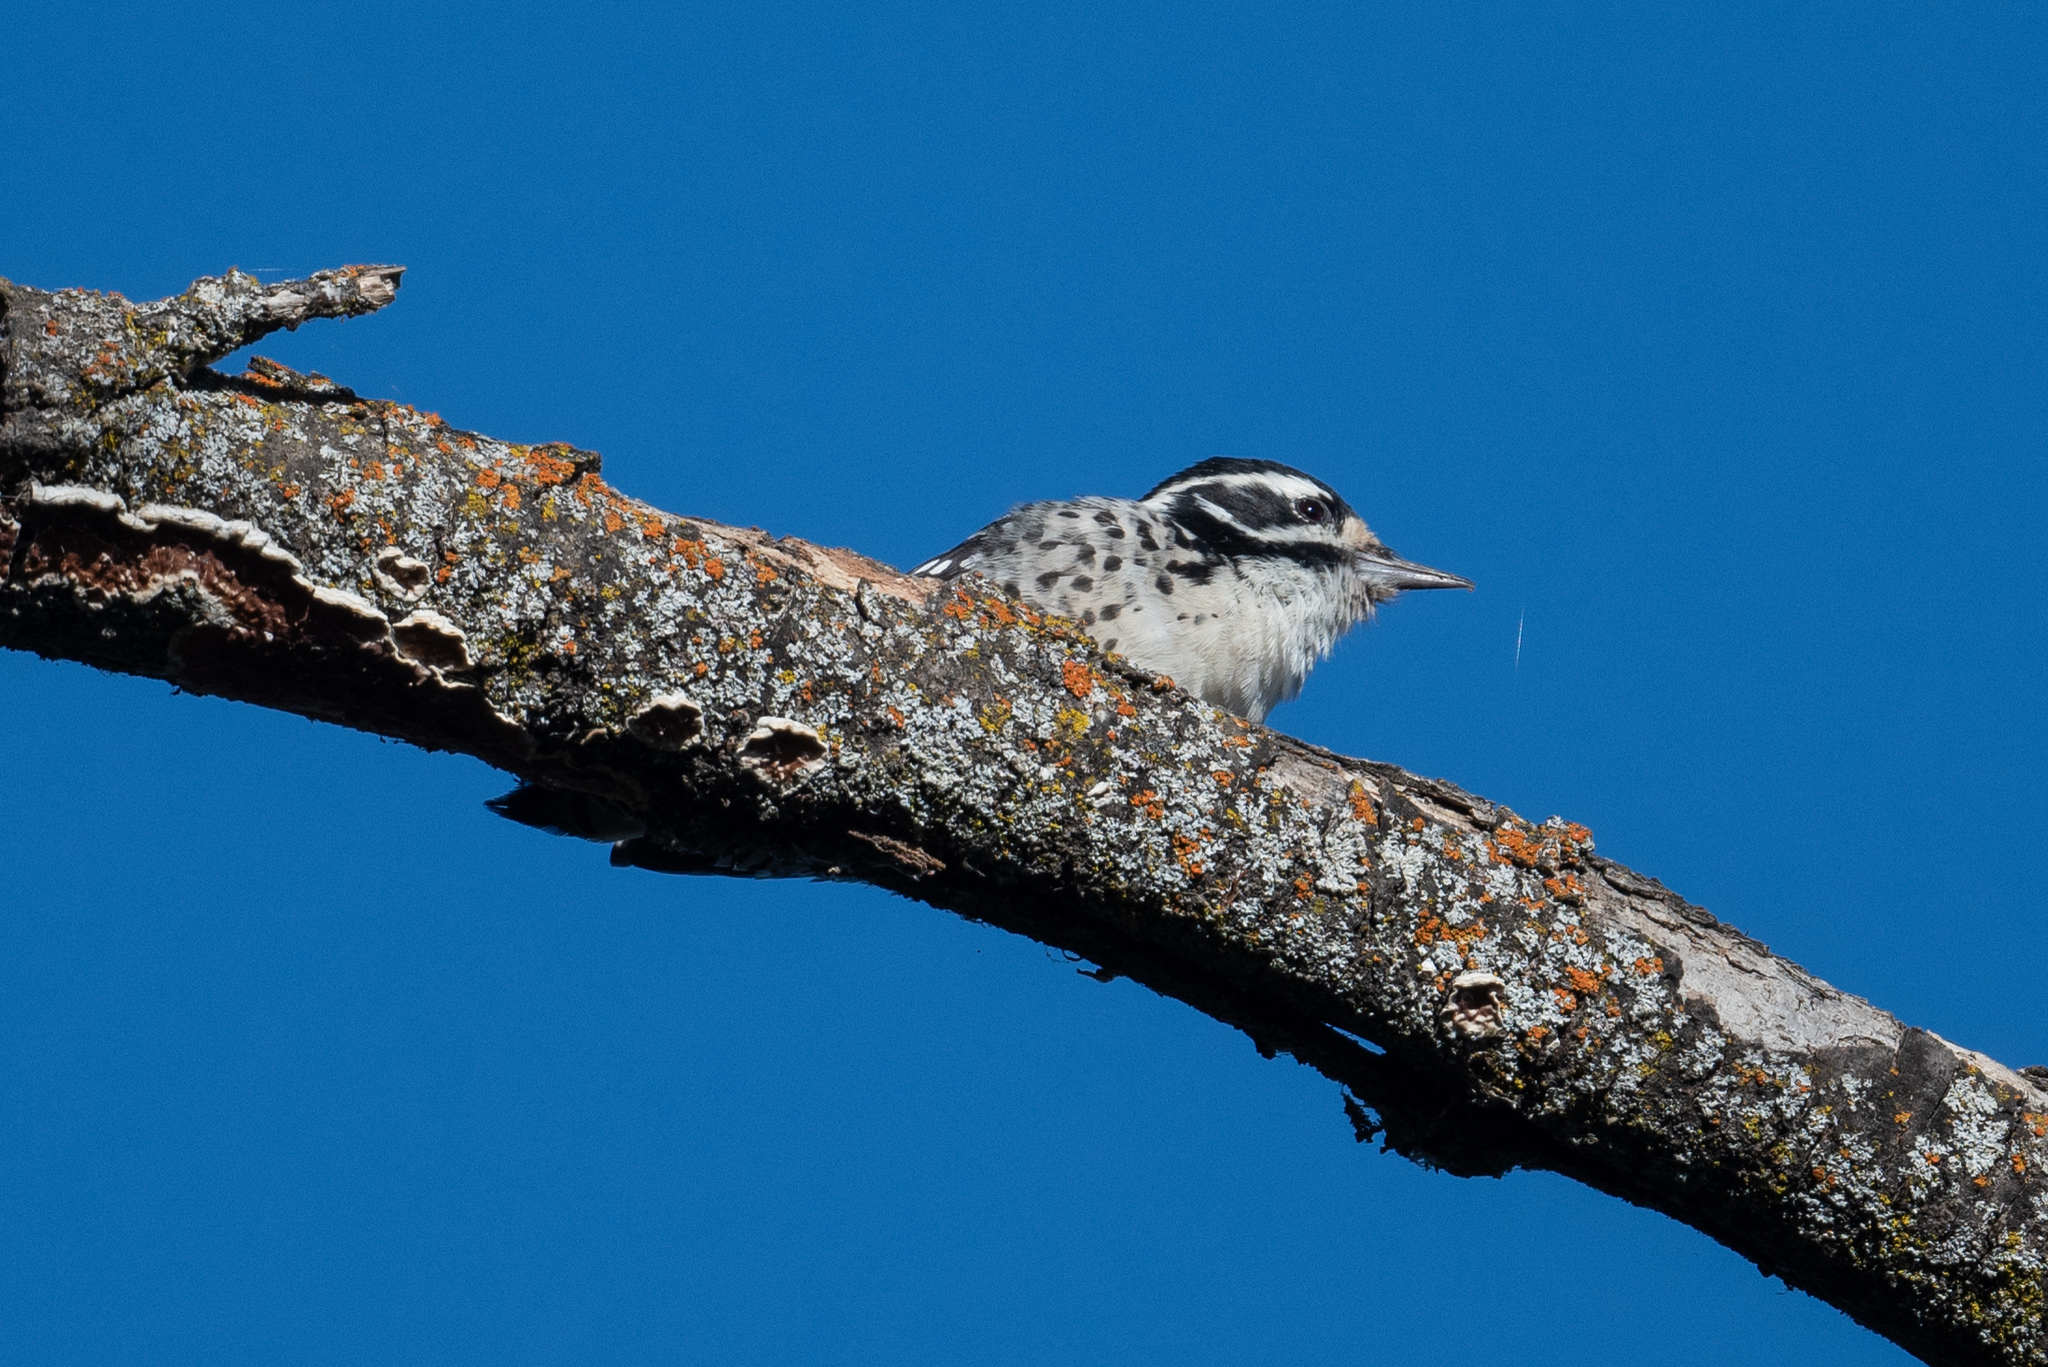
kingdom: Animalia
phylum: Chordata
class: Aves
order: Piciformes
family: Picidae
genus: Dryobates
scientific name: Dryobates nuttallii
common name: Nuttall's woodpecker
